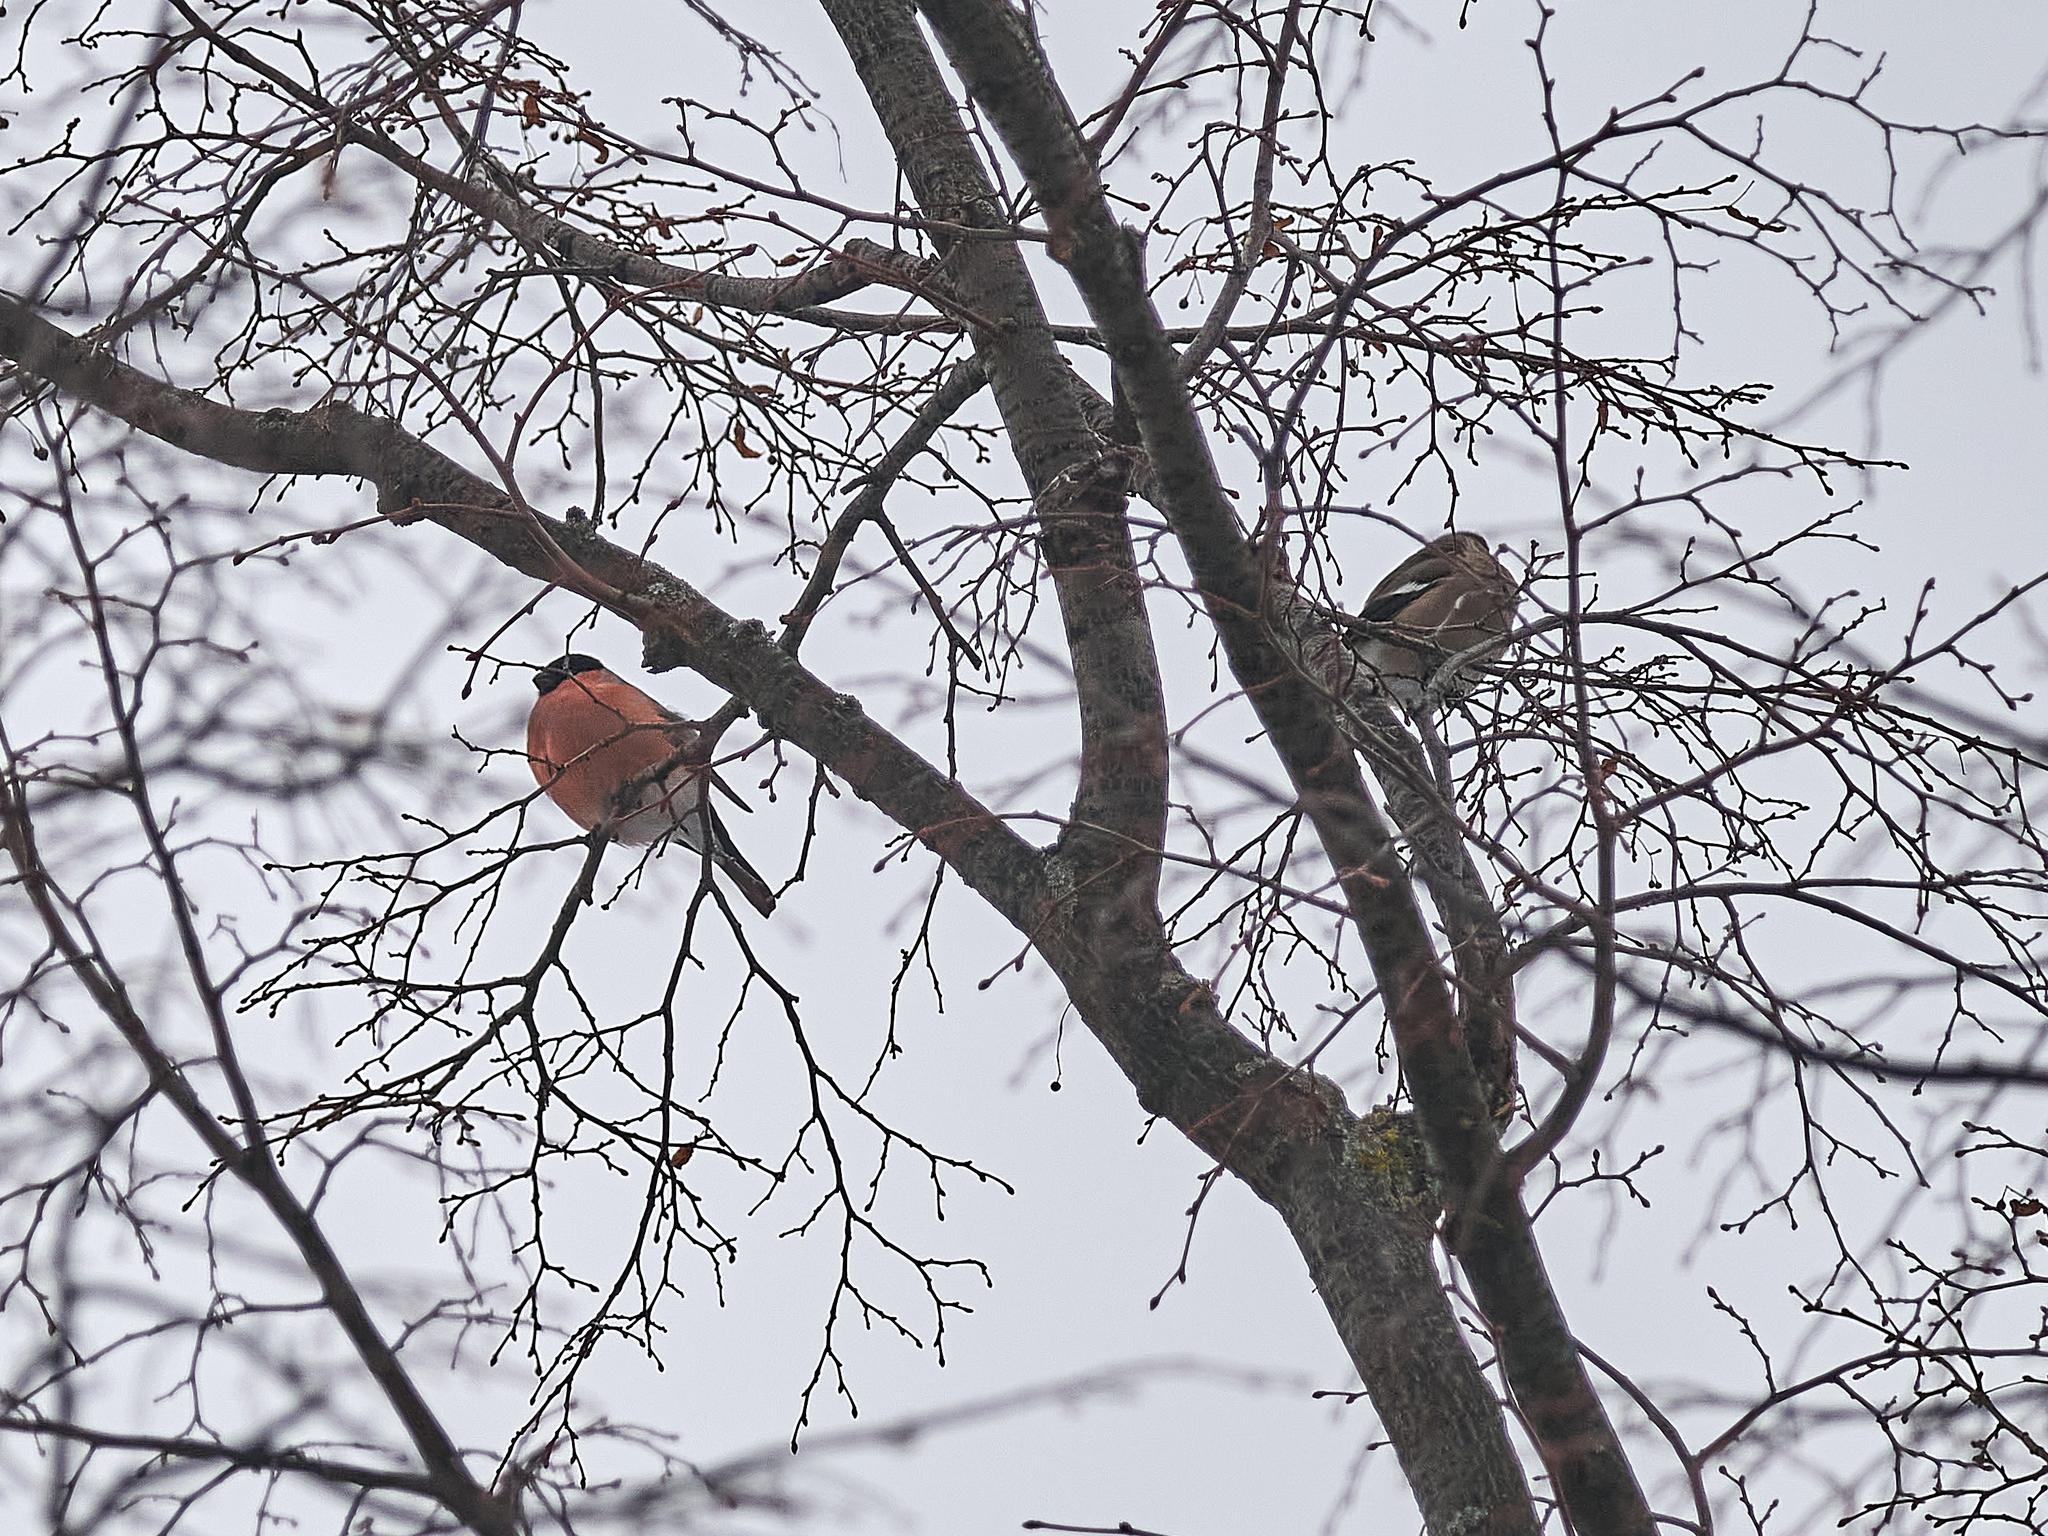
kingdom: Animalia
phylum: Chordata
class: Aves
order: Passeriformes
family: Fringillidae
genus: Pyrrhula
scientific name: Pyrrhula pyrrhula
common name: Eurasian bullfinch
